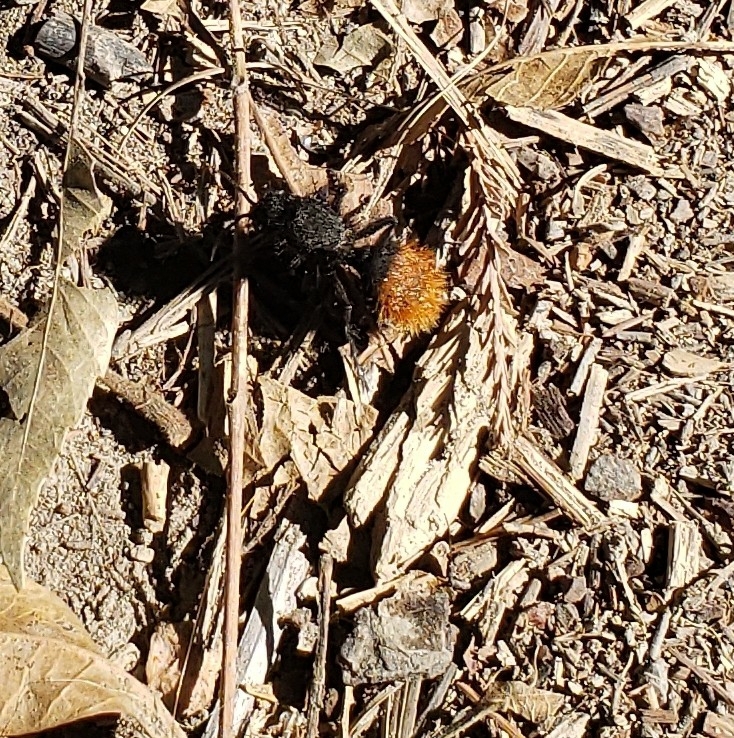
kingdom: Animalia
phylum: Arthropoda
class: Insecta
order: Hymenoptera
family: Mutillidae
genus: Dasymutilla
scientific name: Dasymutilla
